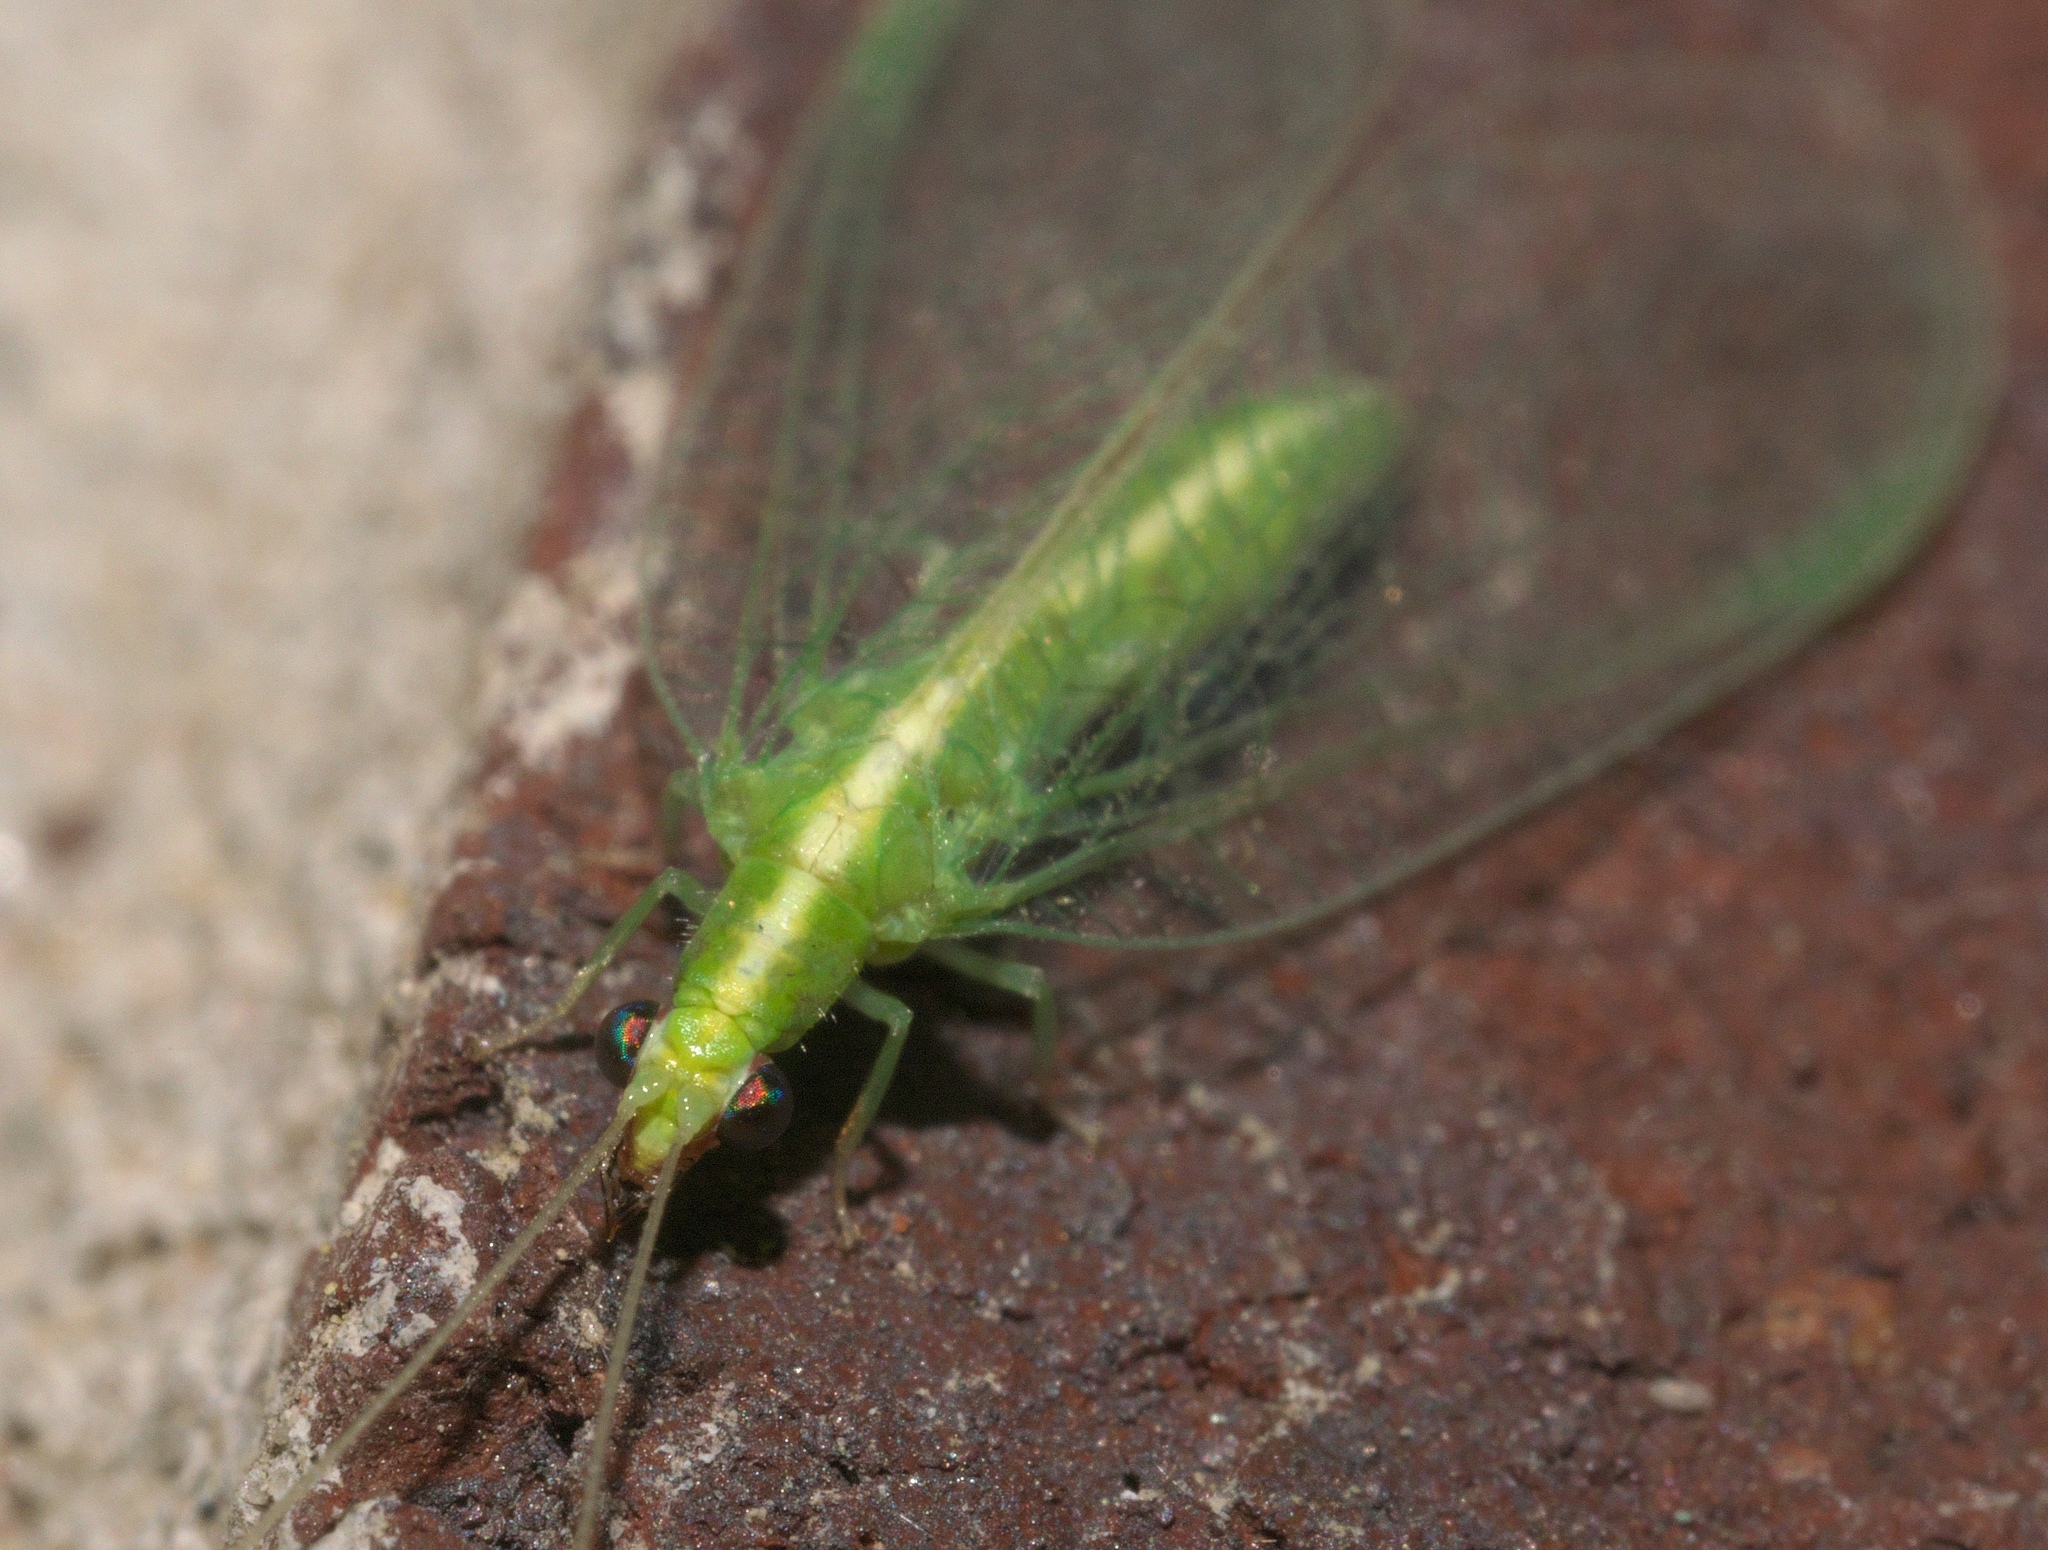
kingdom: Animalia
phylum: Arthropoda
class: Insecta
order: Neuroptera
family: Chrysopidae
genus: Chrysoperla
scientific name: Chrysoperla rufilabris
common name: Red-lipped green lacewing
